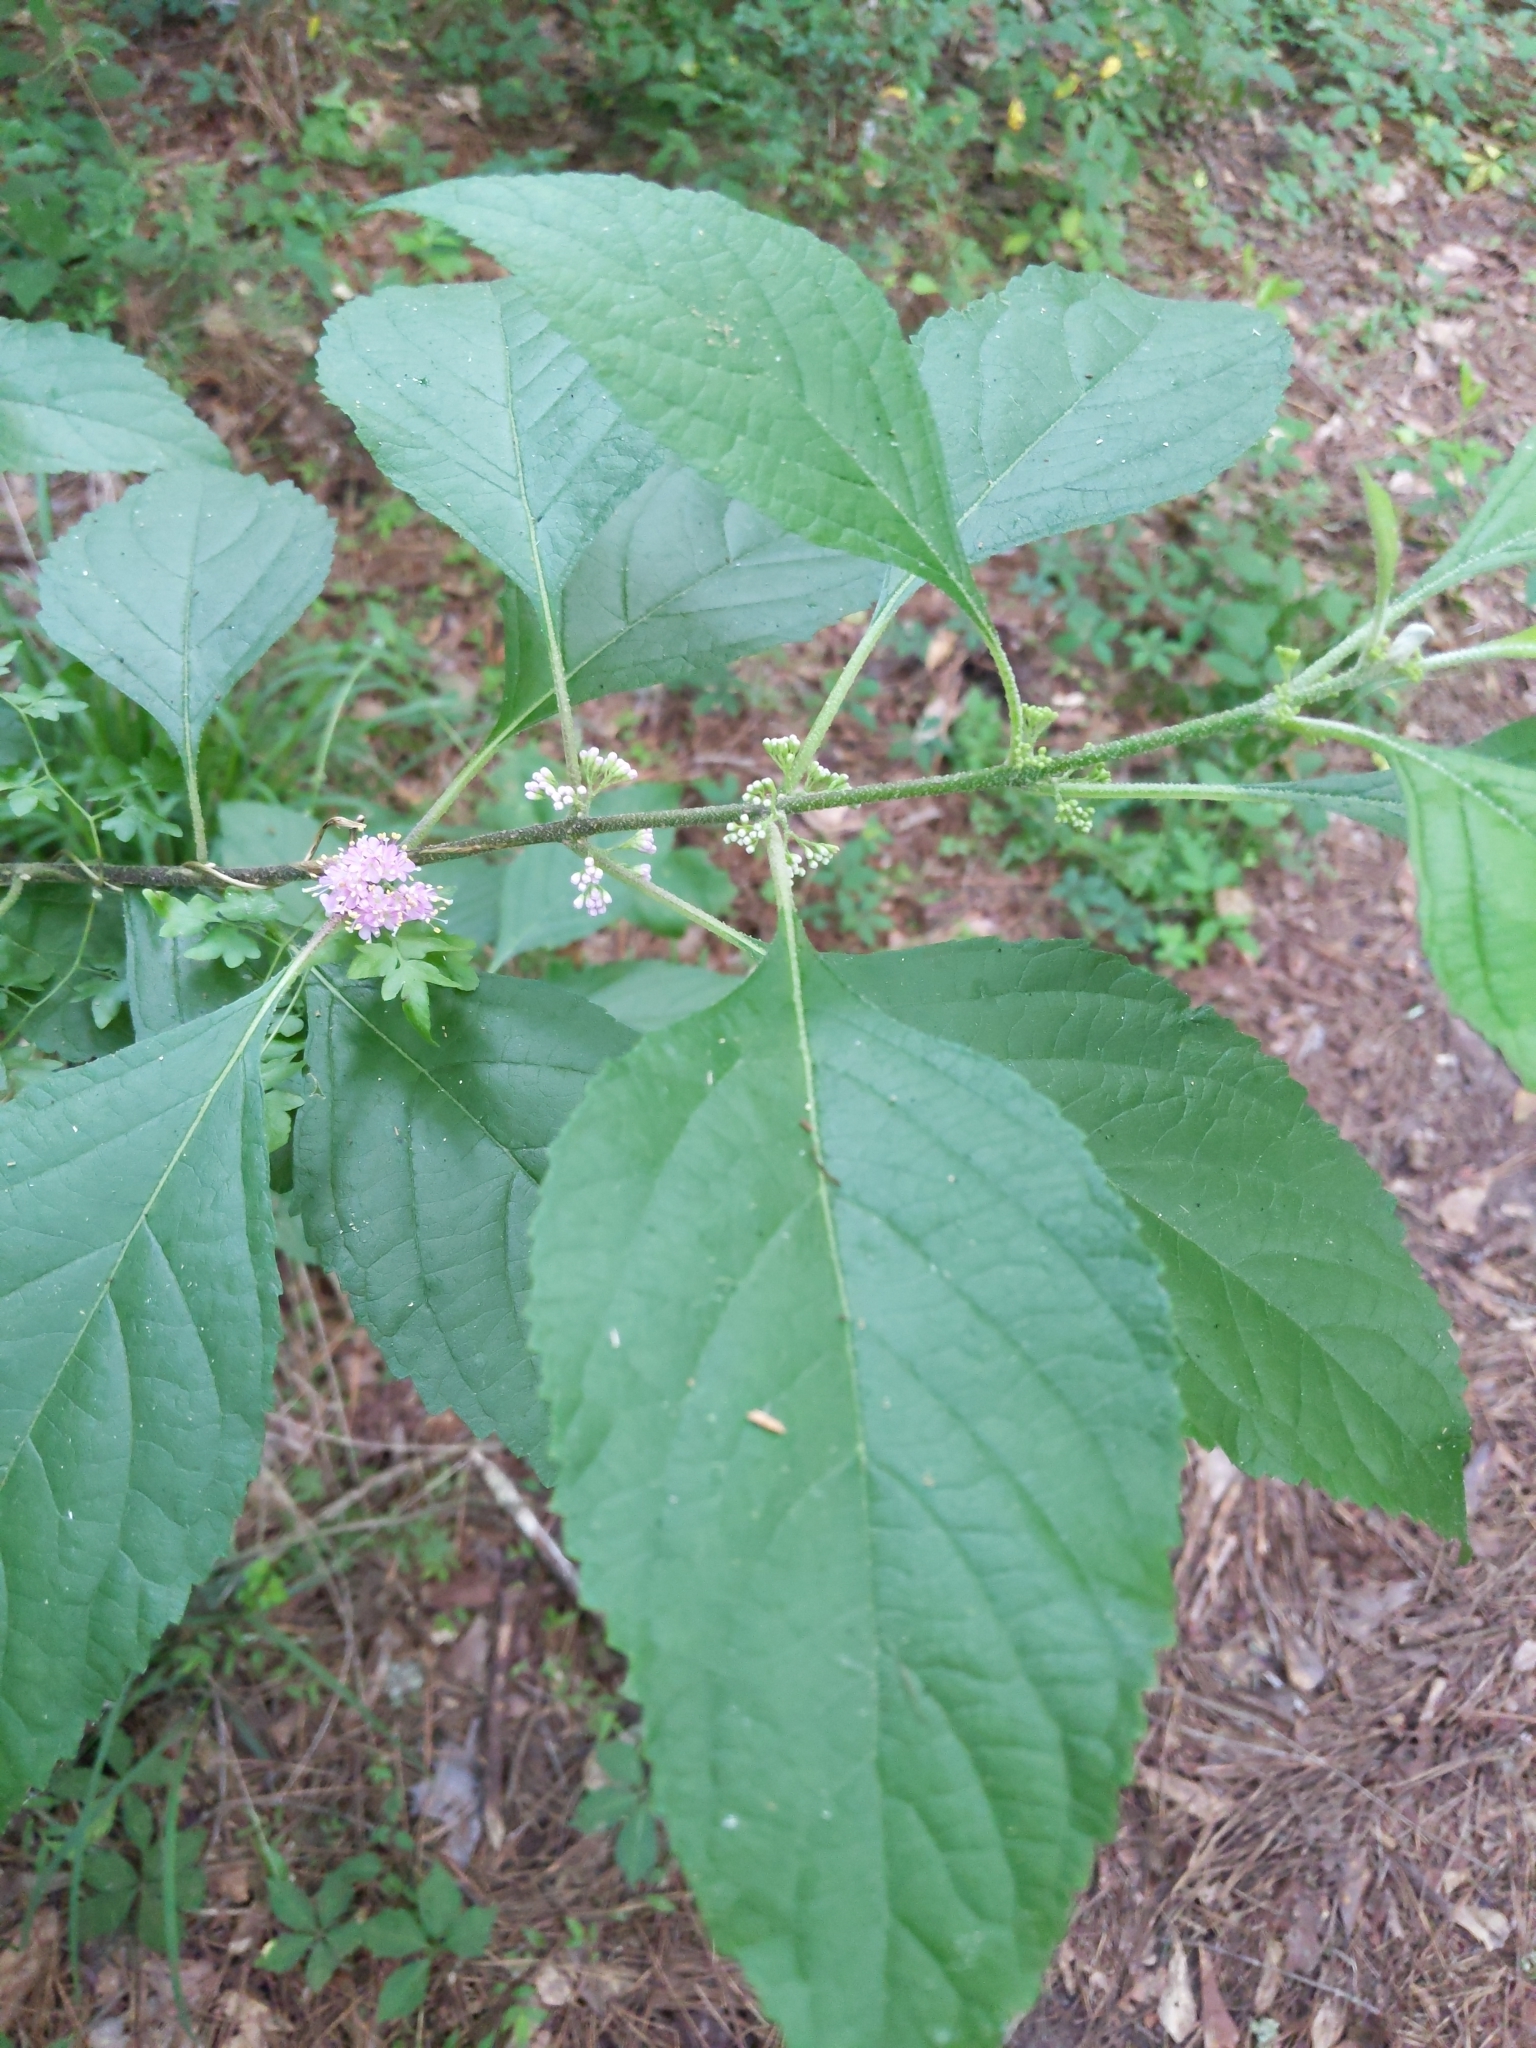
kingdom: Plantae
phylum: Tracheophyta
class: Magnoliopsida
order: Lamiales
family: Lamiaceae
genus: Callicarpa
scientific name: Callicarpa americana
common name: American beautyberry
